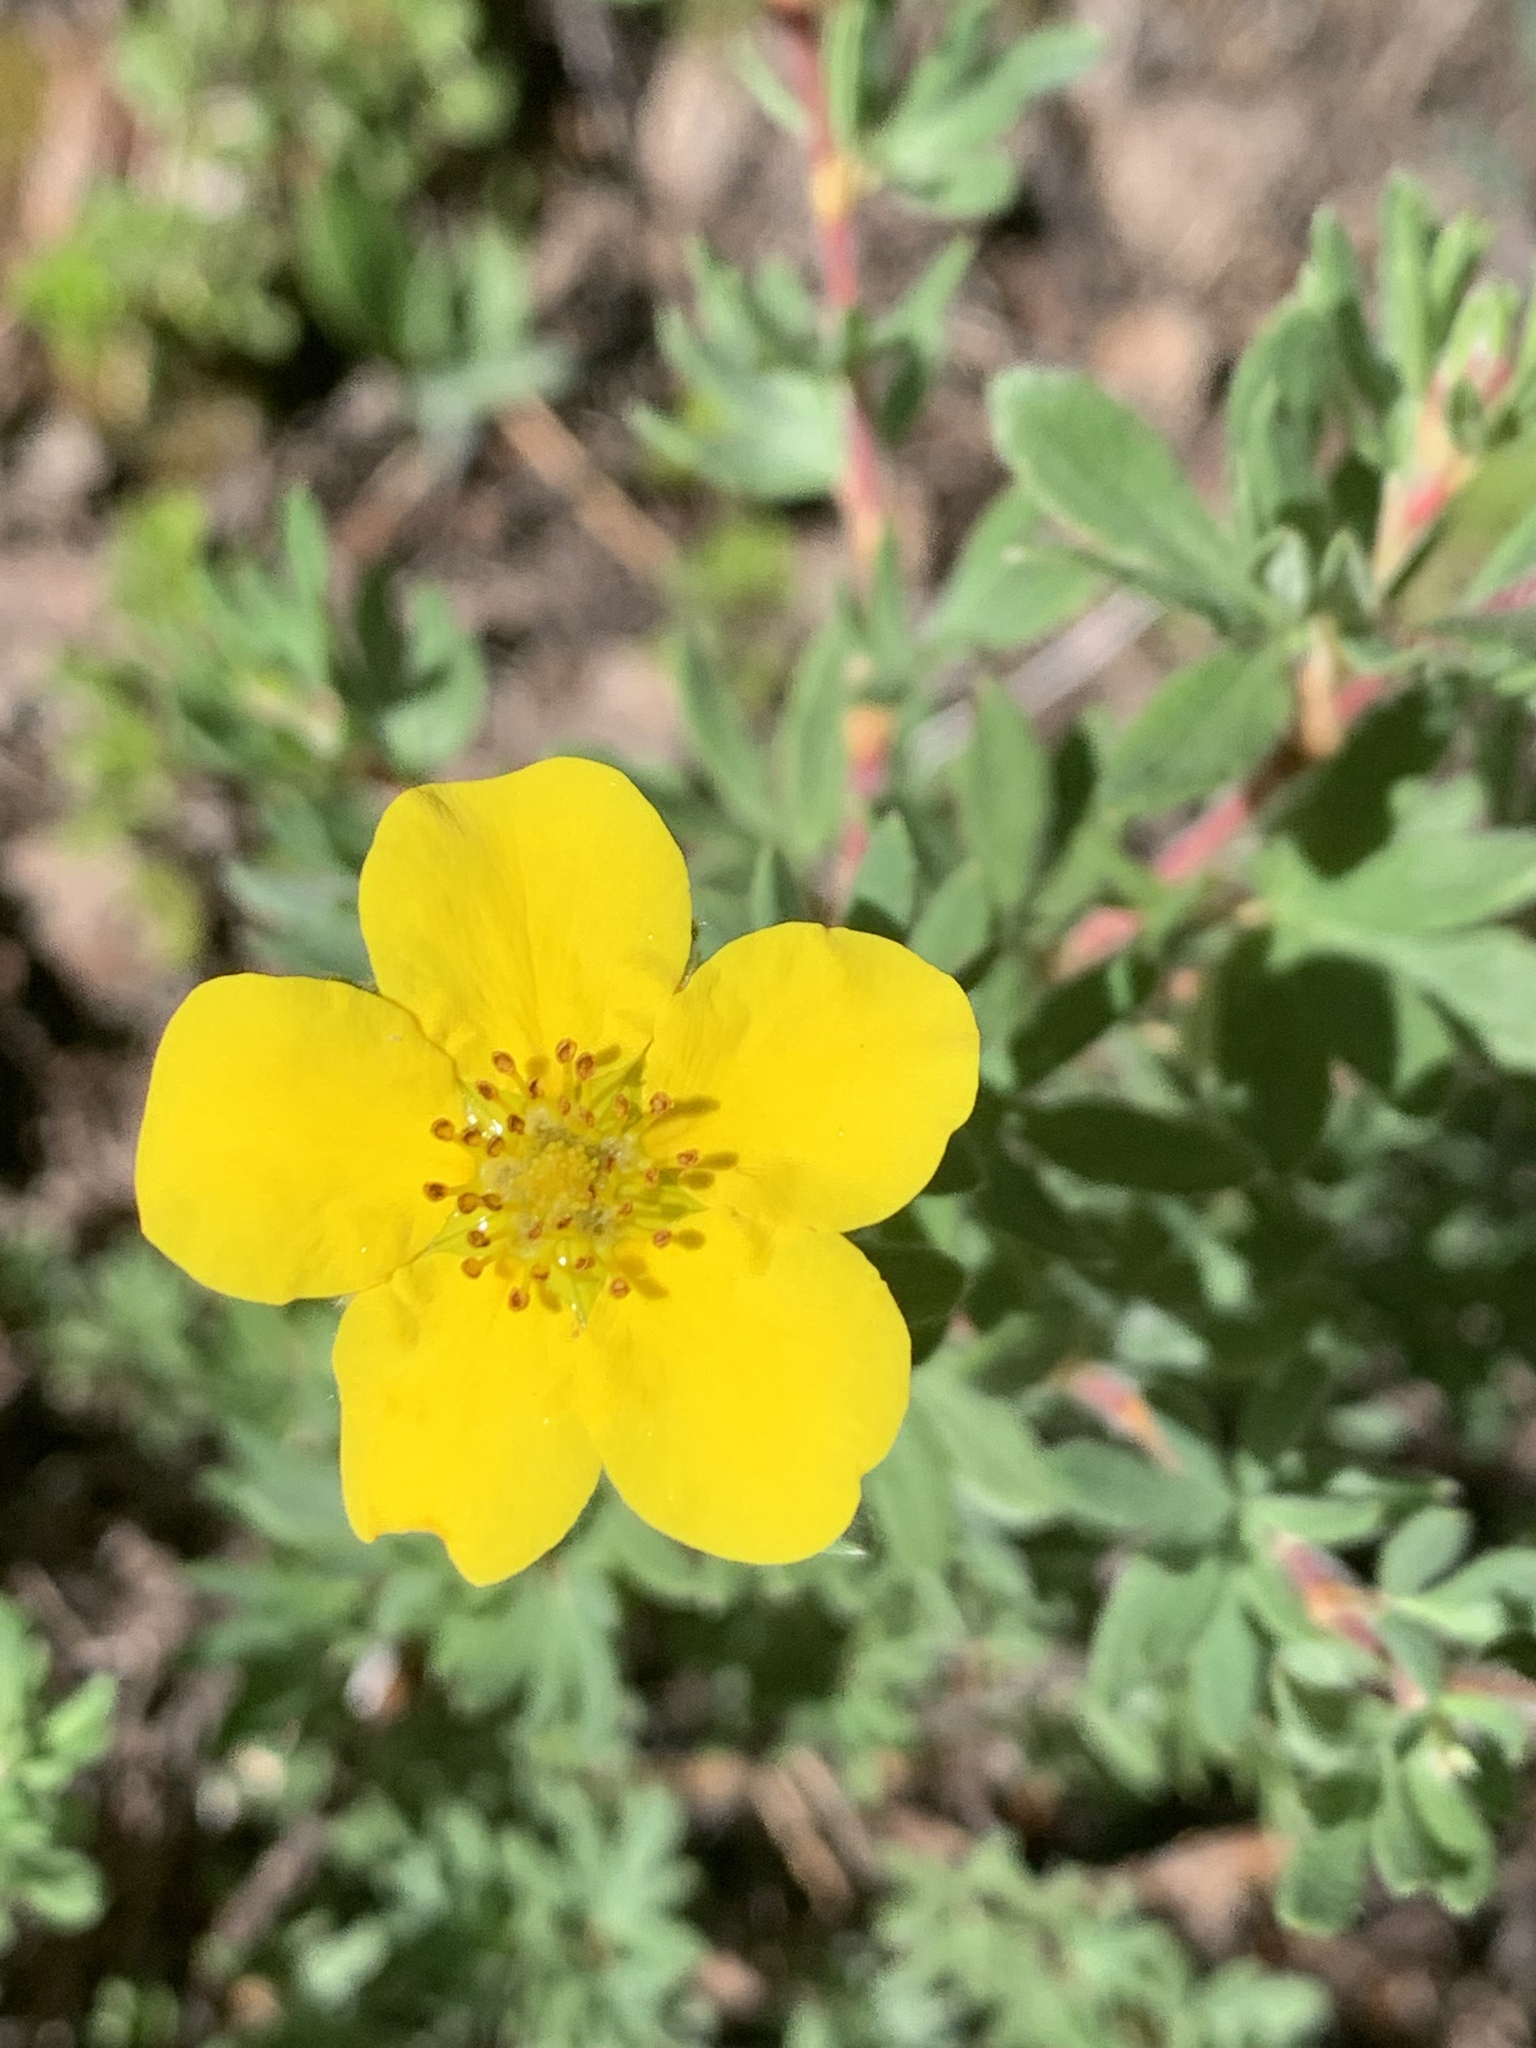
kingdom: Plantae
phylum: Tracheophyta
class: Magnoliopsida
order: Rosales
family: Rosaceae
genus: Dasiphora
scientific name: Dasiphora fruticosa
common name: Shrubby cinquefoil
